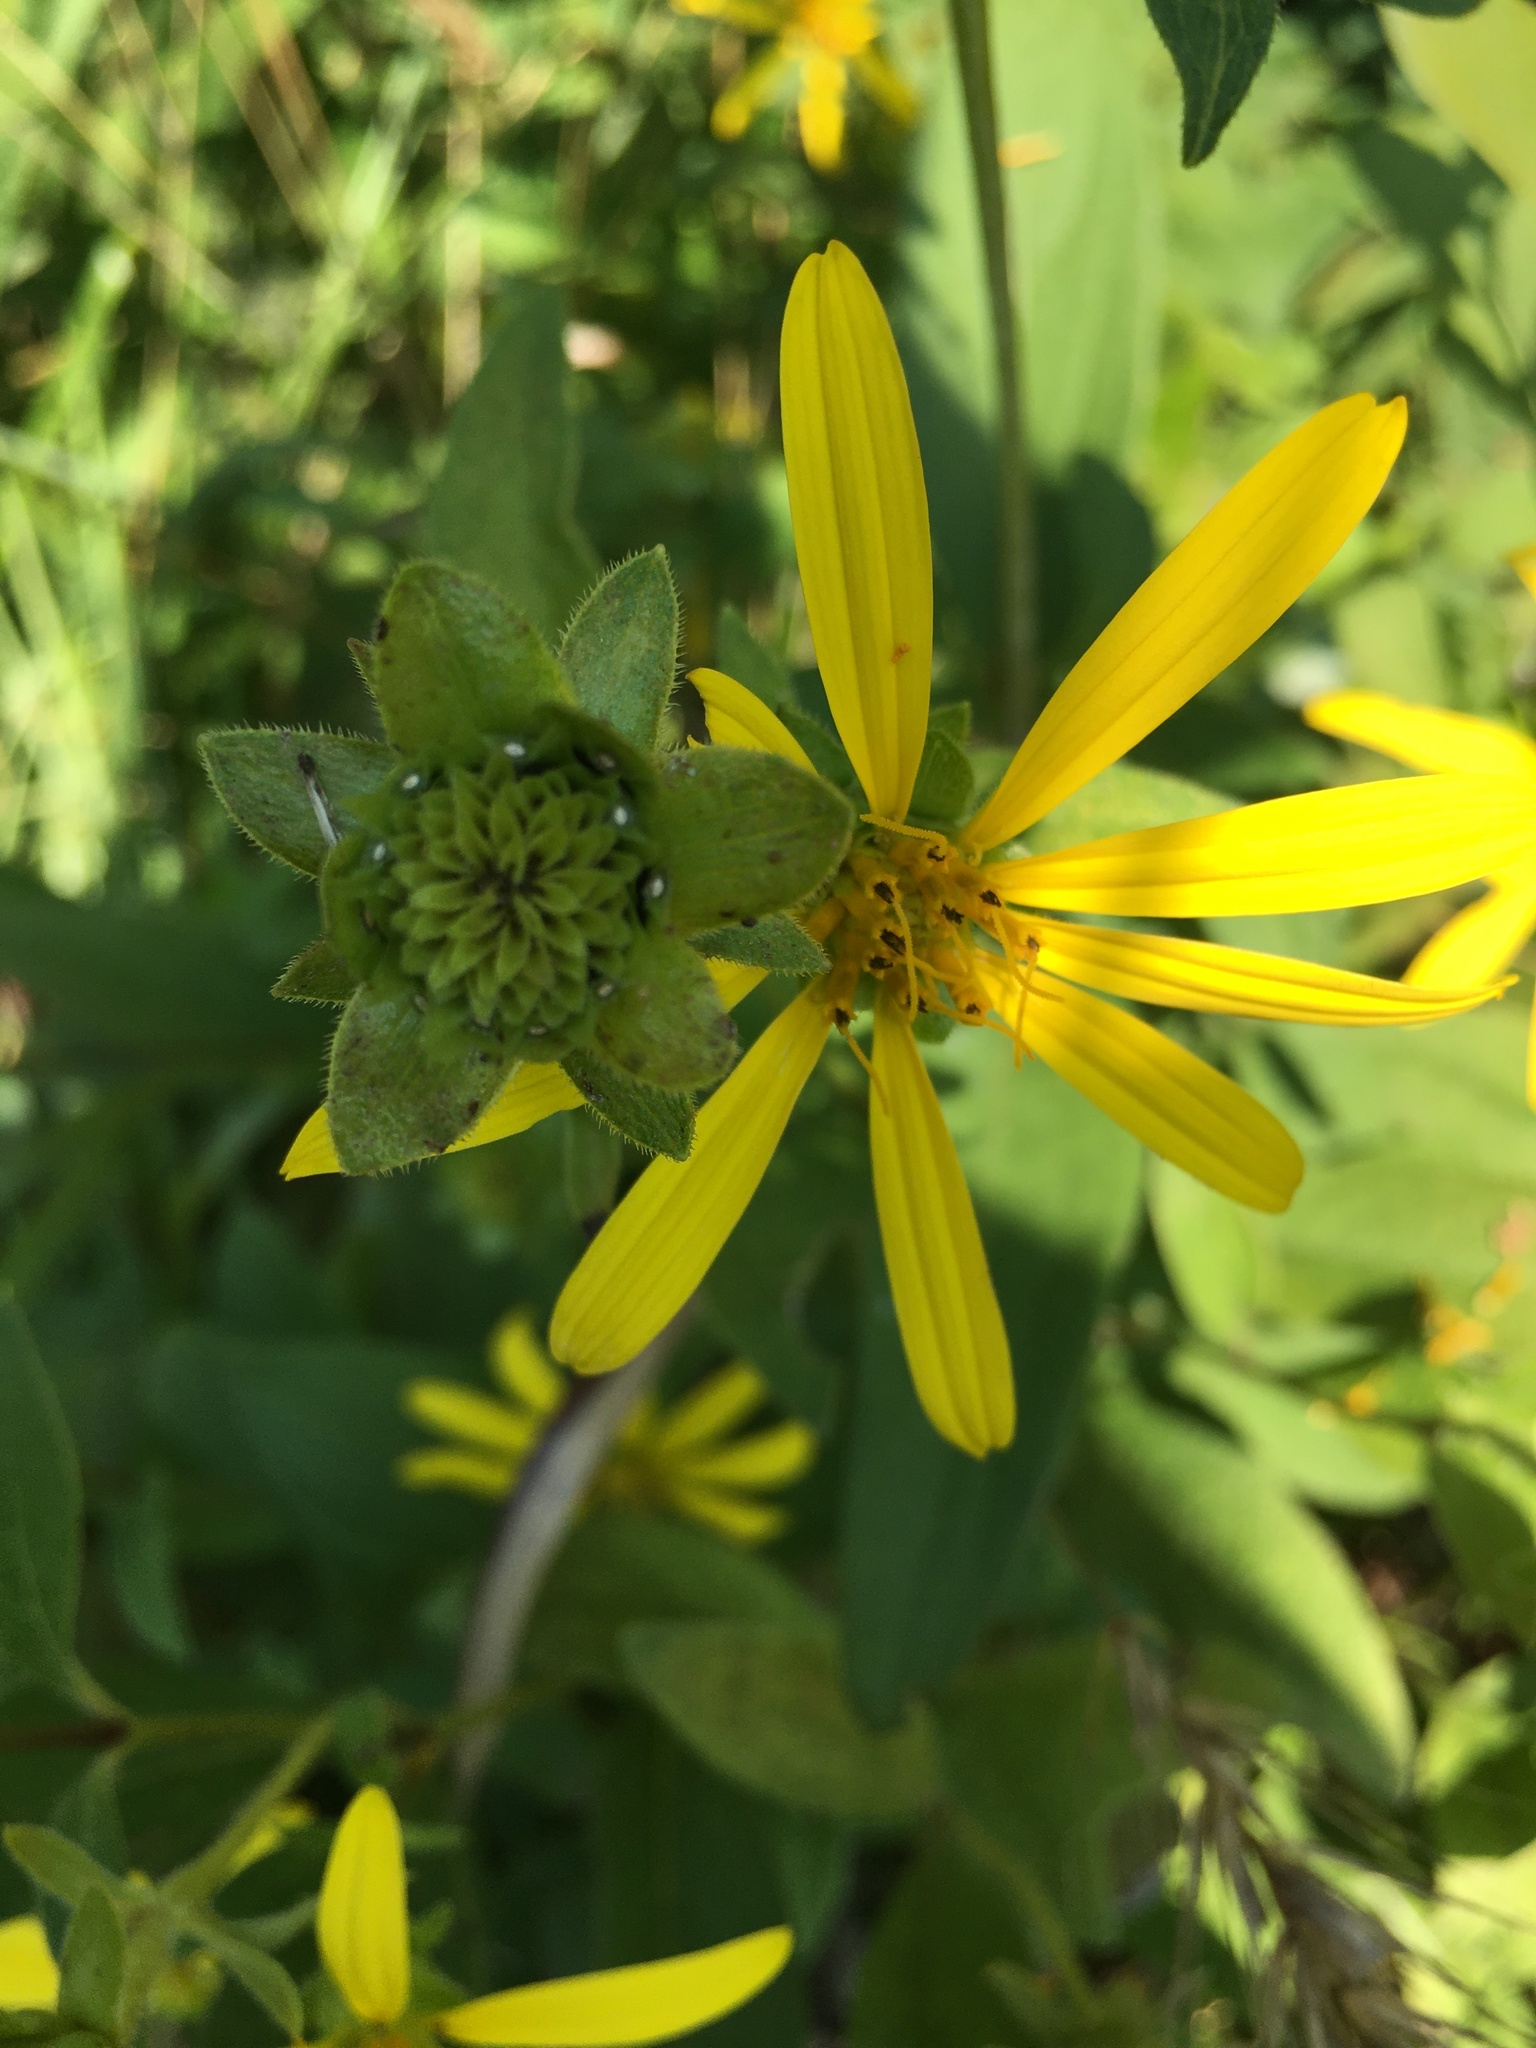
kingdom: Plantae
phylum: Tracheophyta
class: Magnoliopsida
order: Asterales
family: Asteraceae
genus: Silphium
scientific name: Silphium asteriscus
